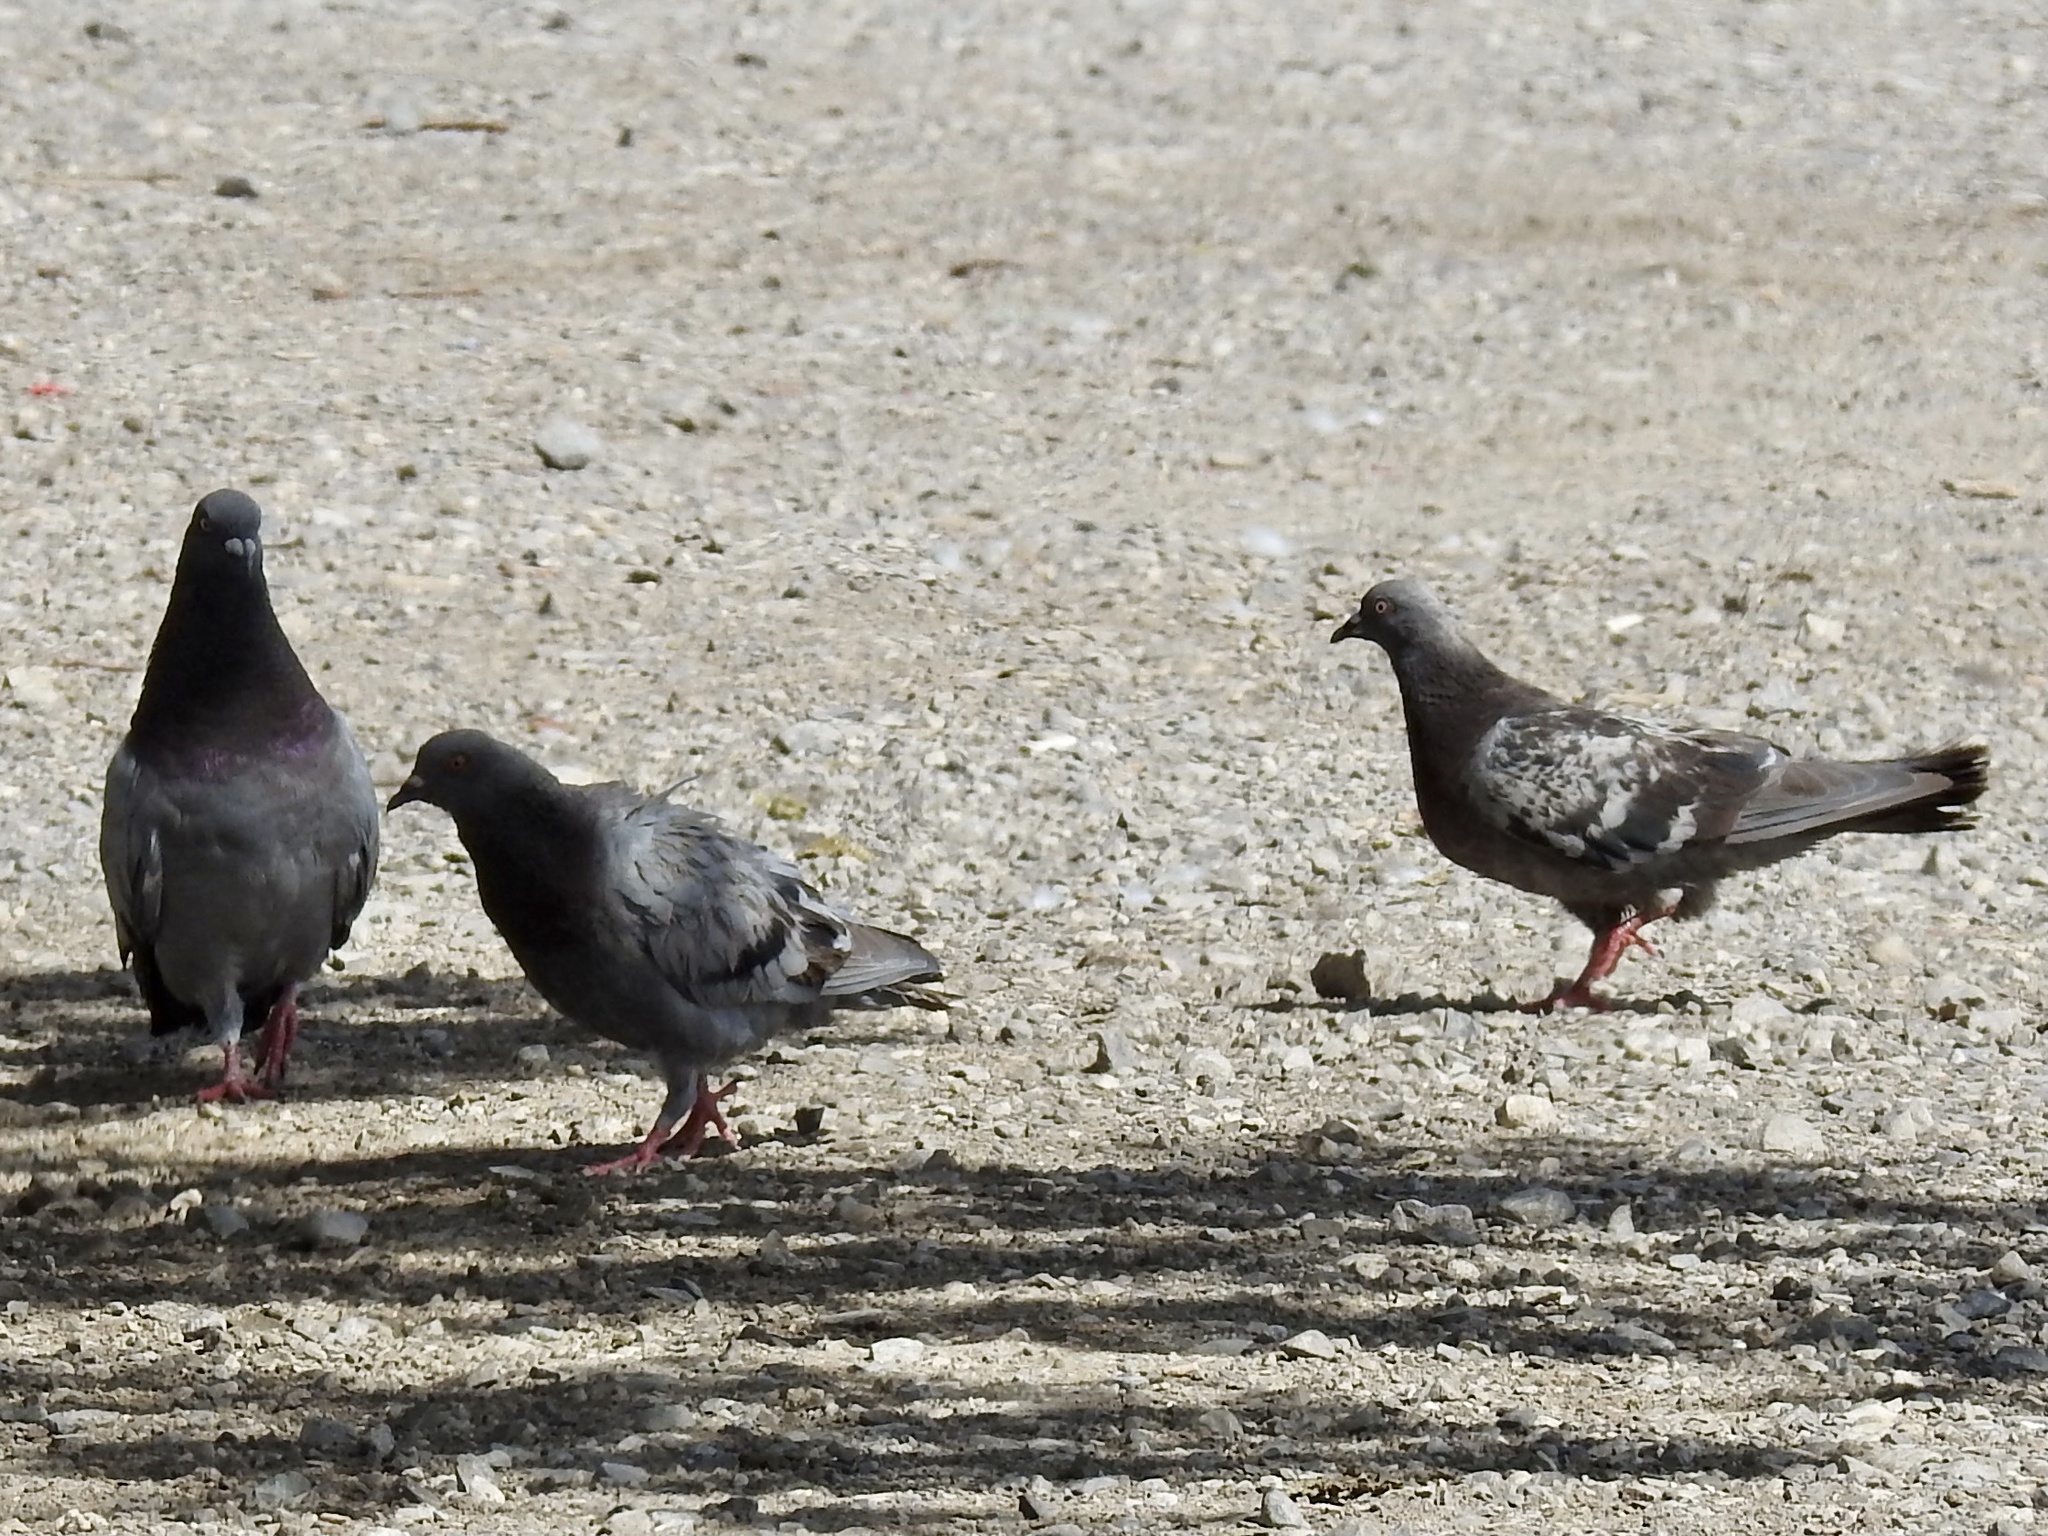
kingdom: Animalia
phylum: Chordata
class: Aves
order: Columbiformes
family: Columbidae
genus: Columba
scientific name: Columba livia
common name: Rock pigeon
